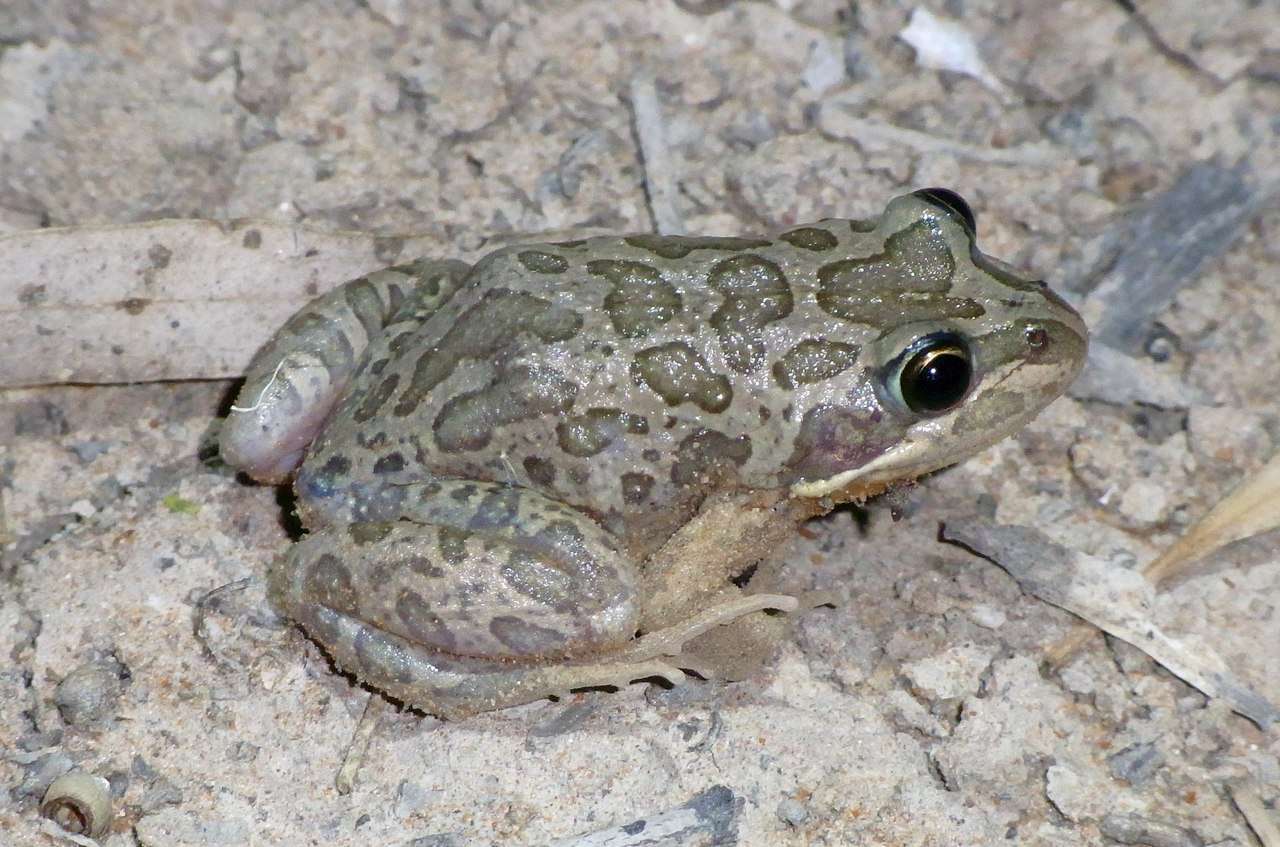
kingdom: Animalia
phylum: Chordata
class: Amphibia
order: Anura
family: Limnodynastidae
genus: Limnodynastes
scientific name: Limnodynastes tasmaniensis
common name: Spotted marsh frog
